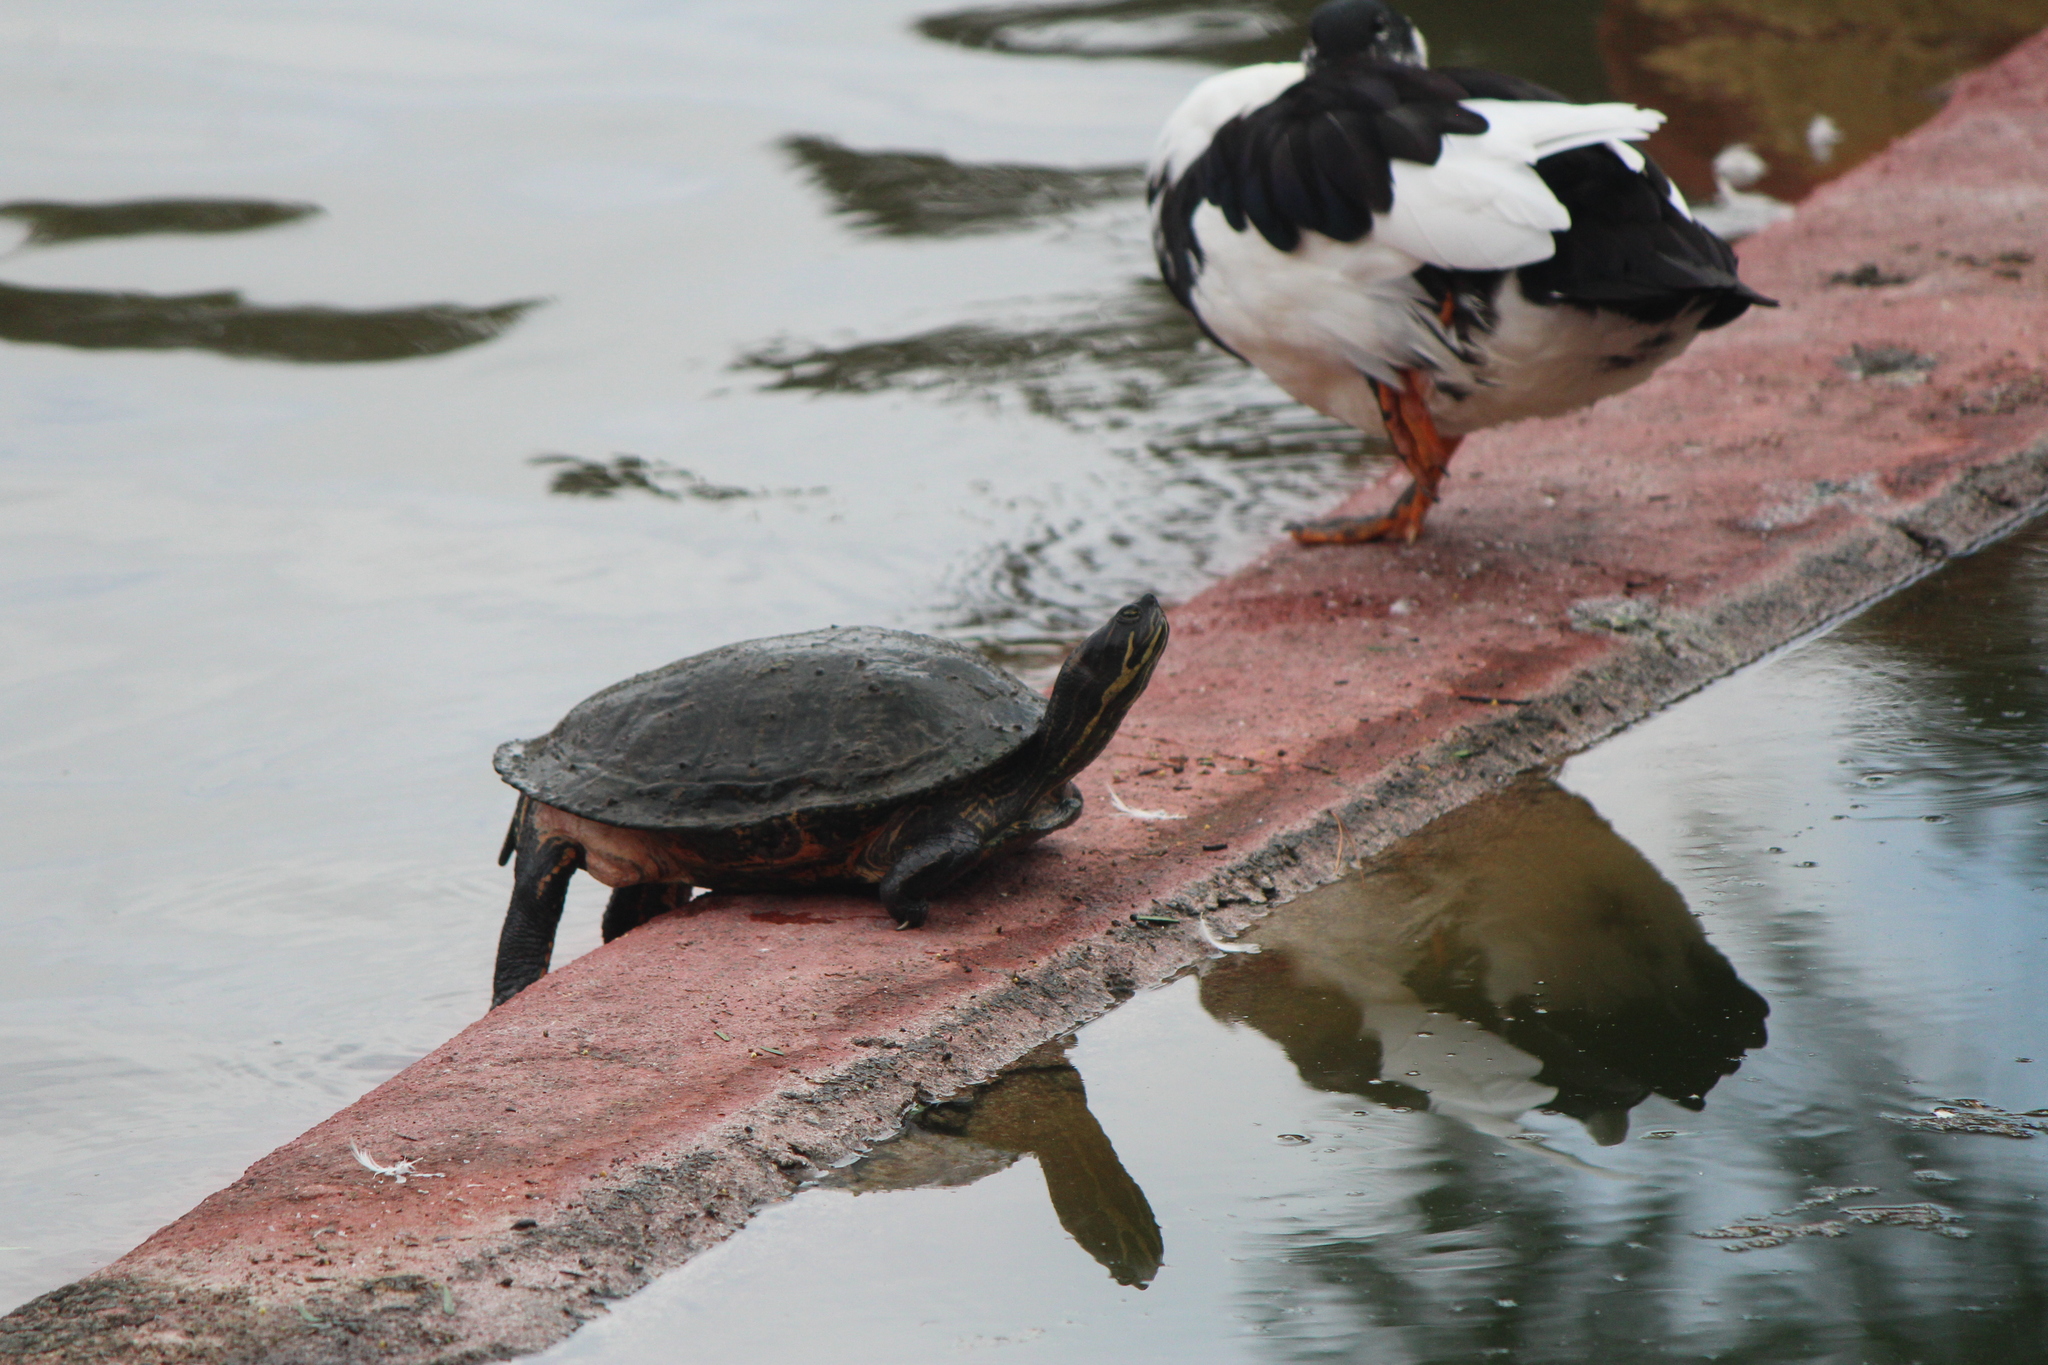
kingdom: Animalia
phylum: Chordata
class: Testudines
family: Emydidae
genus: Trachemys
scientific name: Trachemys venusta
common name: Mesoamerican slider
